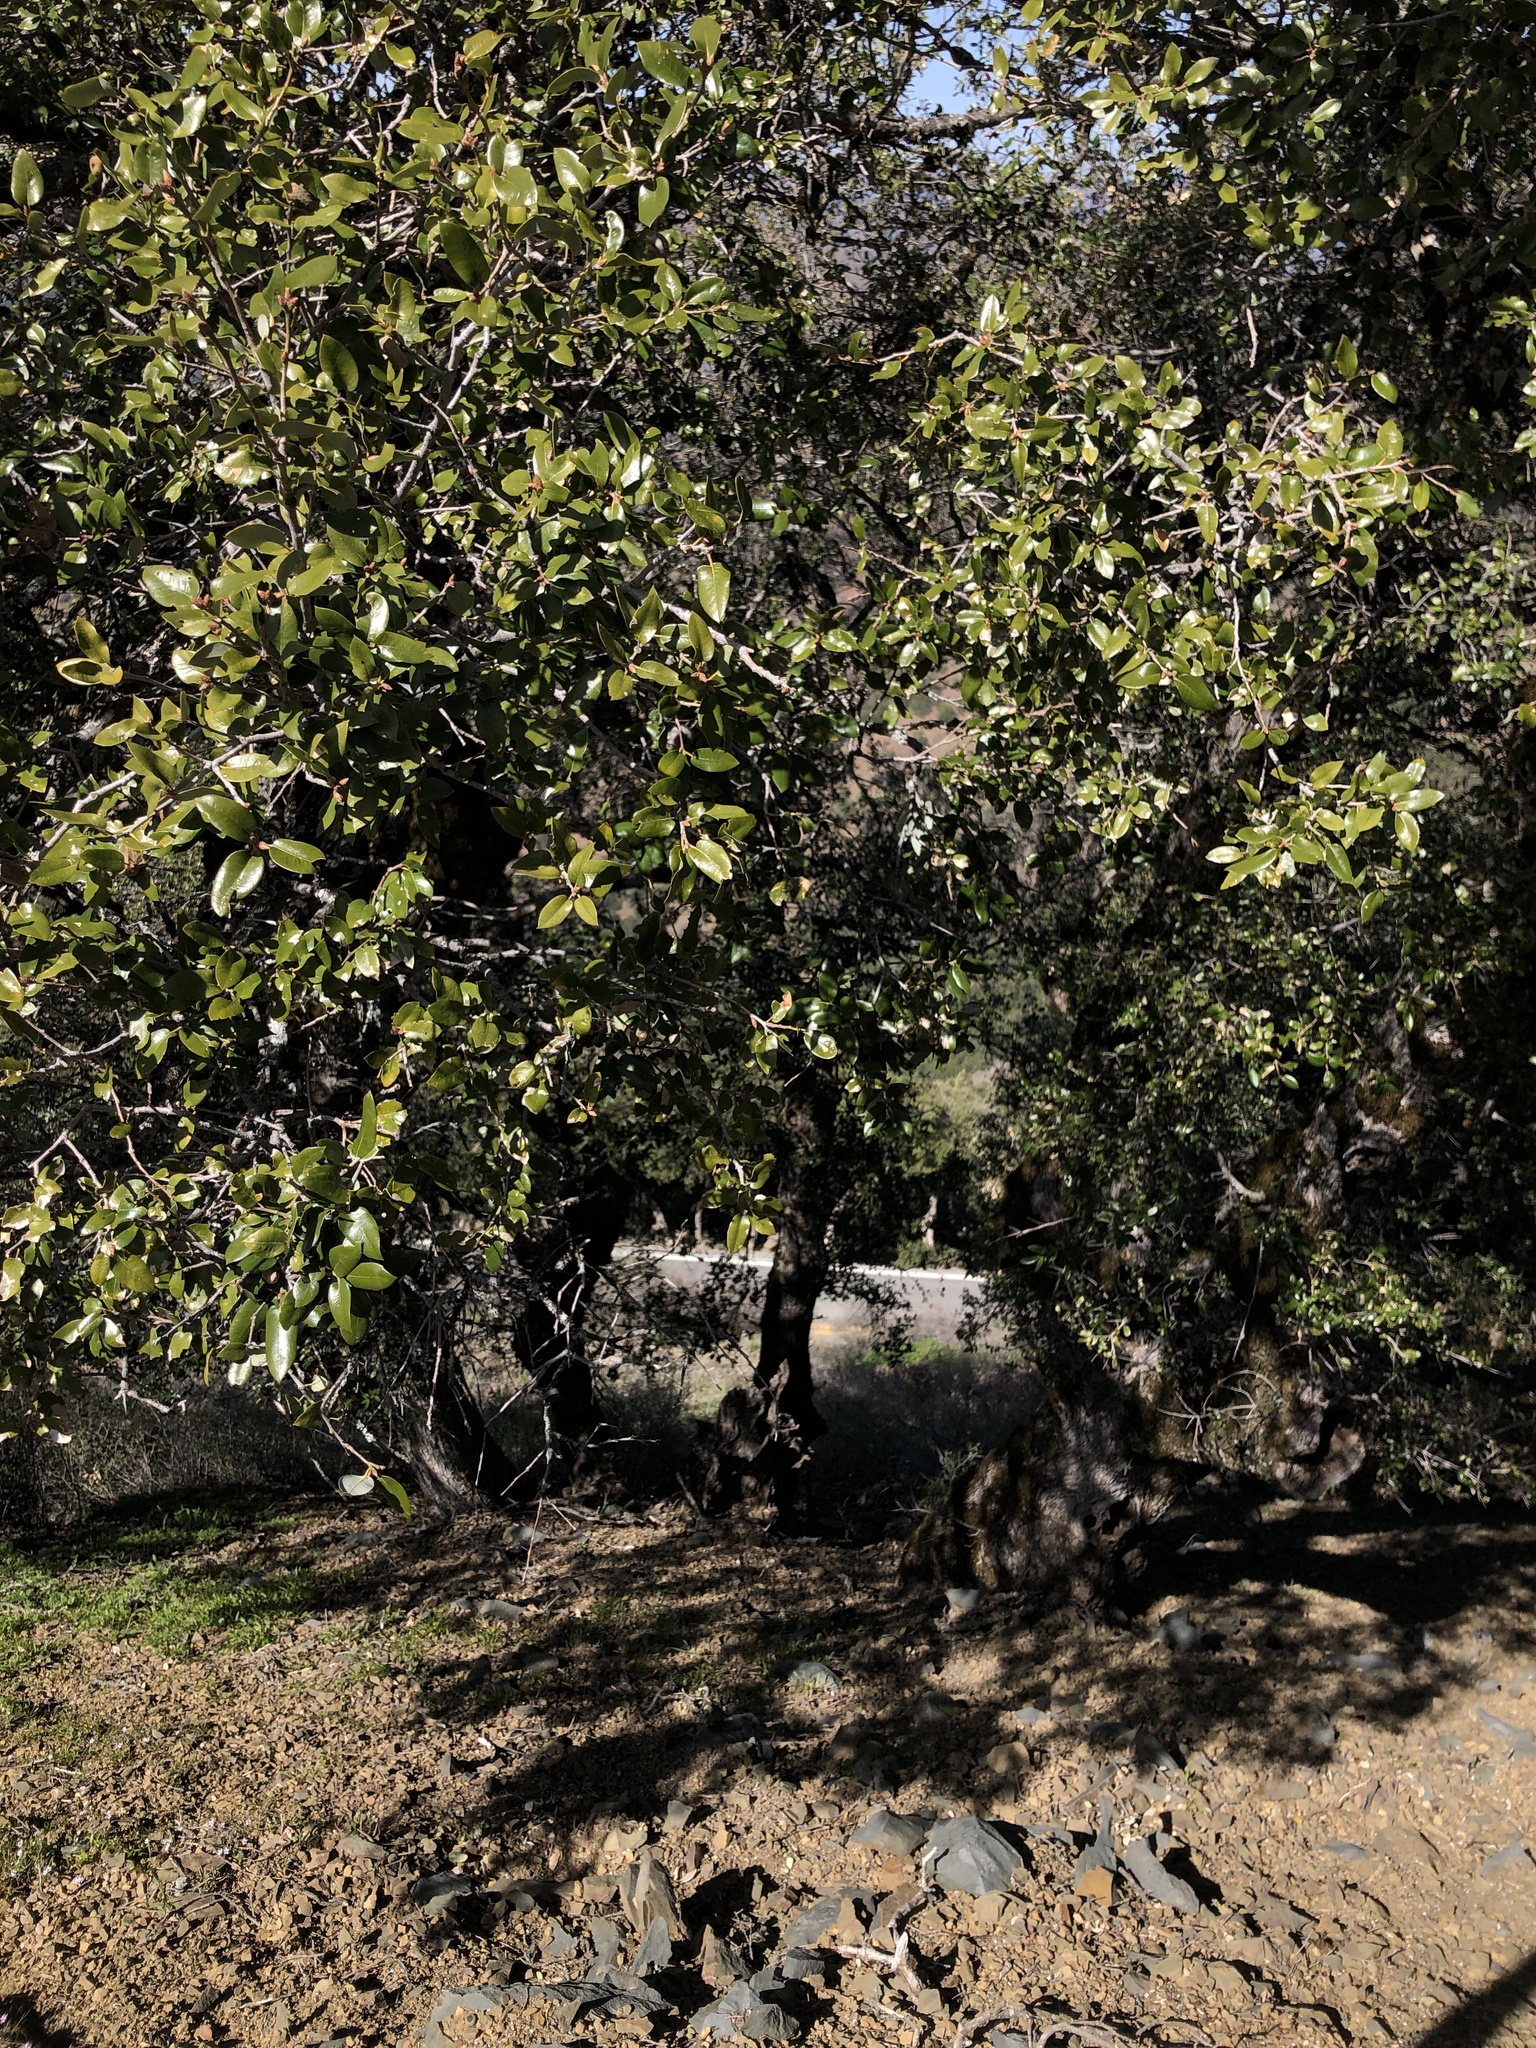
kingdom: Plantae
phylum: Tracheophyta
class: Magnoliopsida
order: Fagales
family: Fagaceae
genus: Quercus
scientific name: Quercus chrysolepis
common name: Canyon live oak
